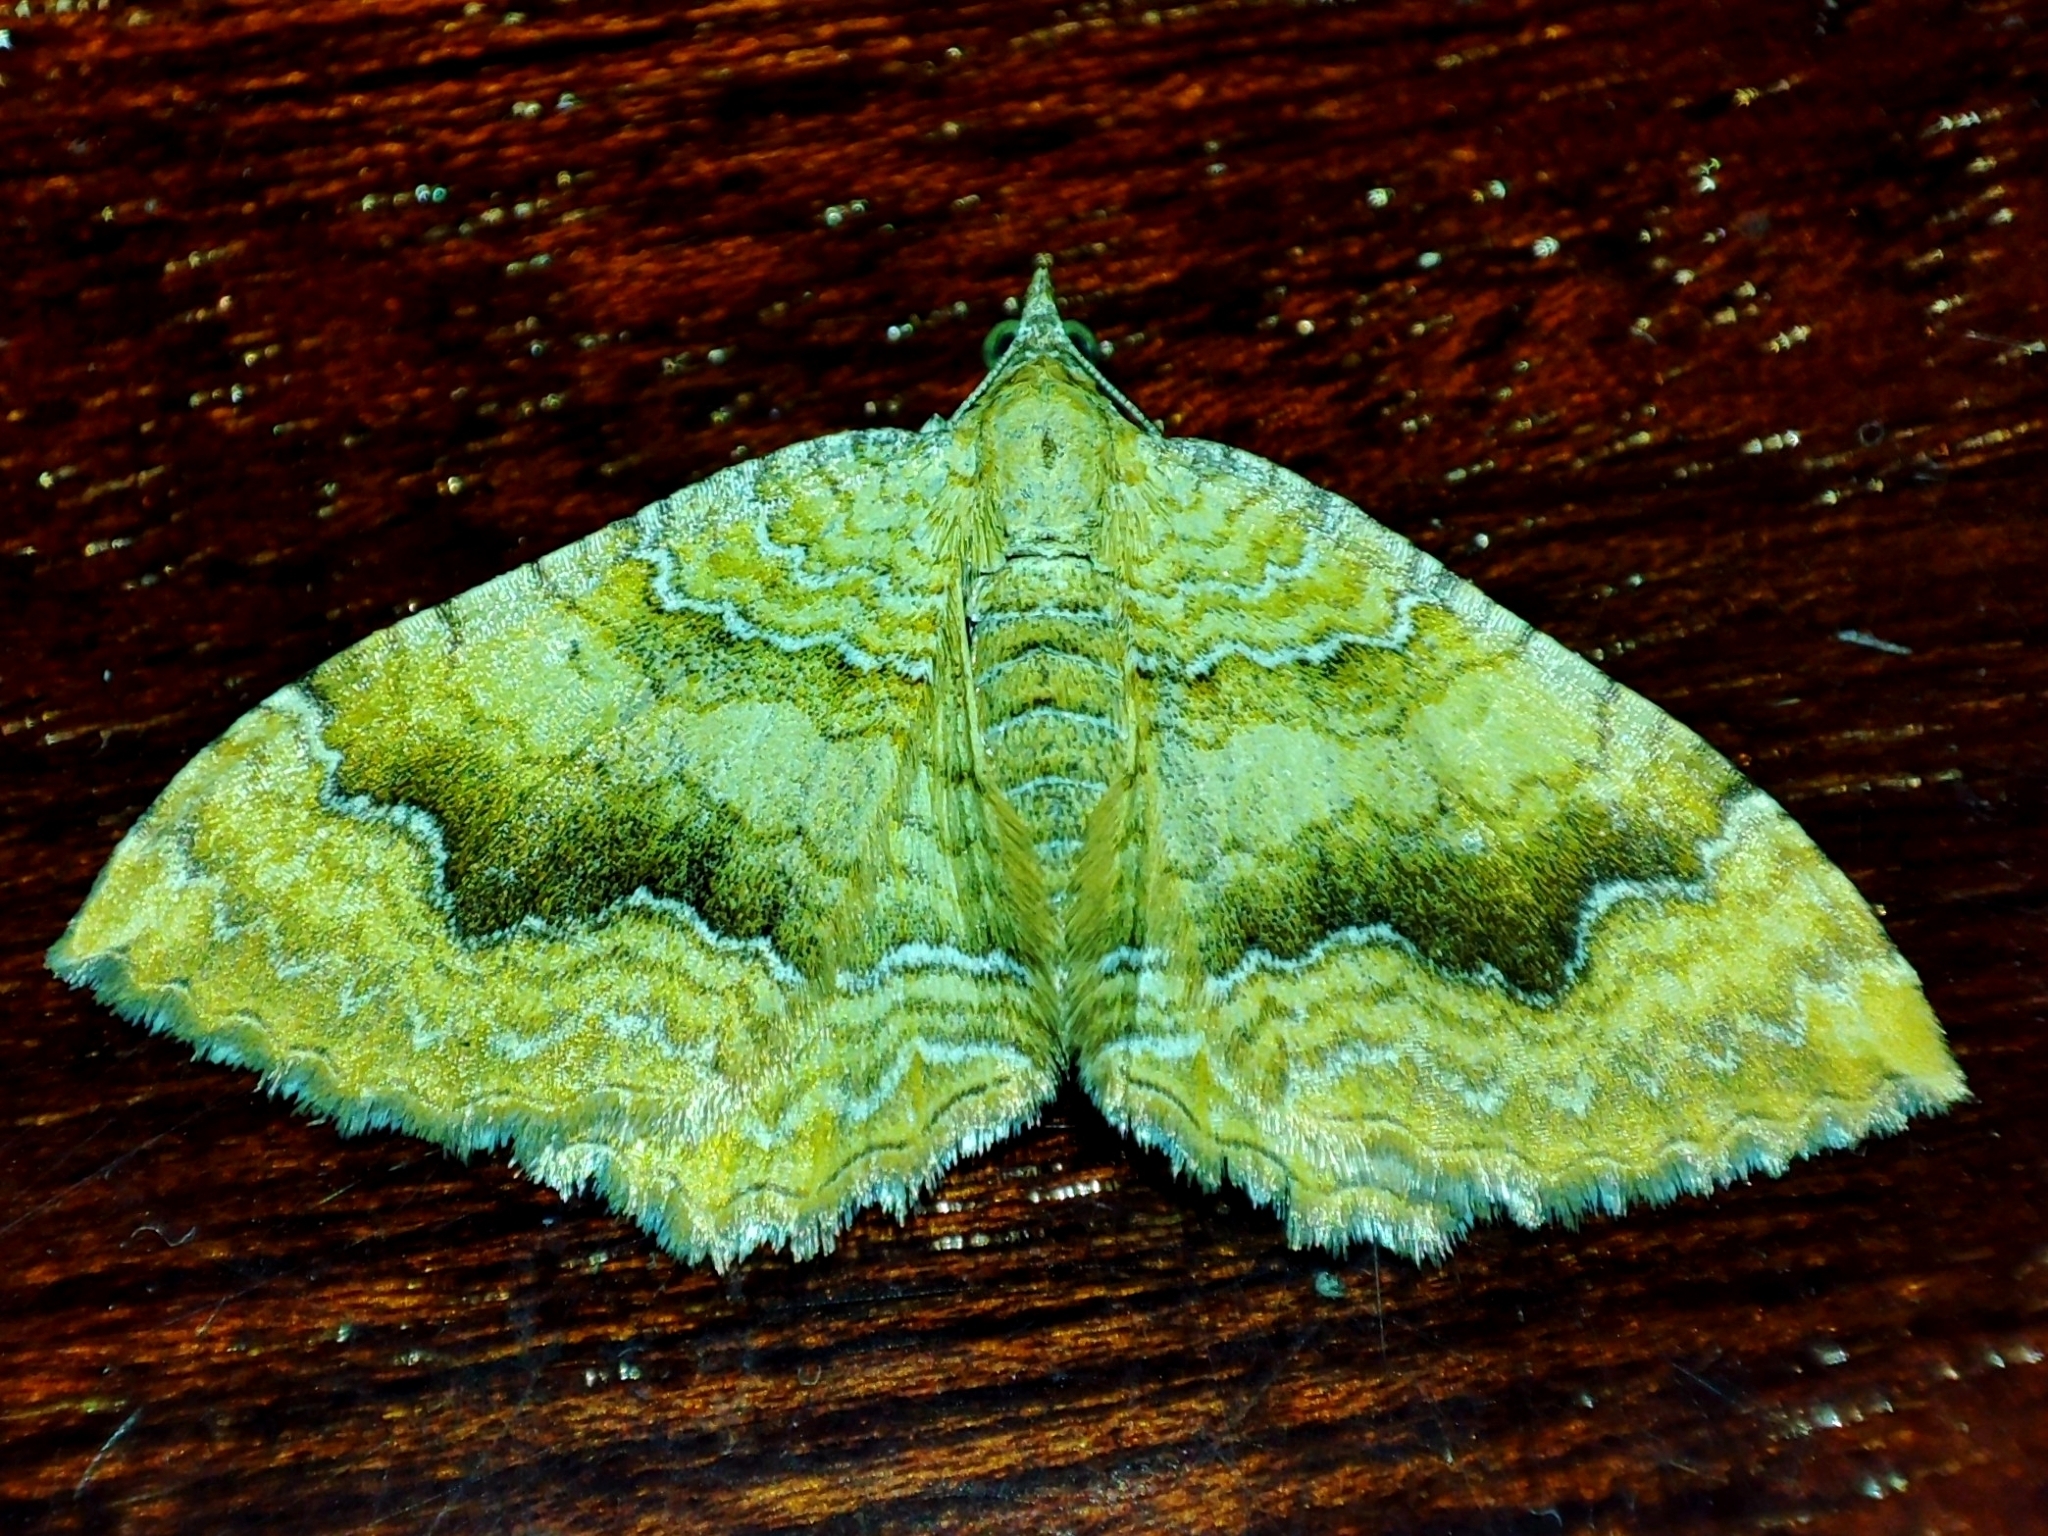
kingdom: Animalia
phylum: Arthropoda
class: Insecta
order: Lepidoptera
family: Geometridae
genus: Camptogramma
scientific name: Camptogramma bilineata
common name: Yellow shell
